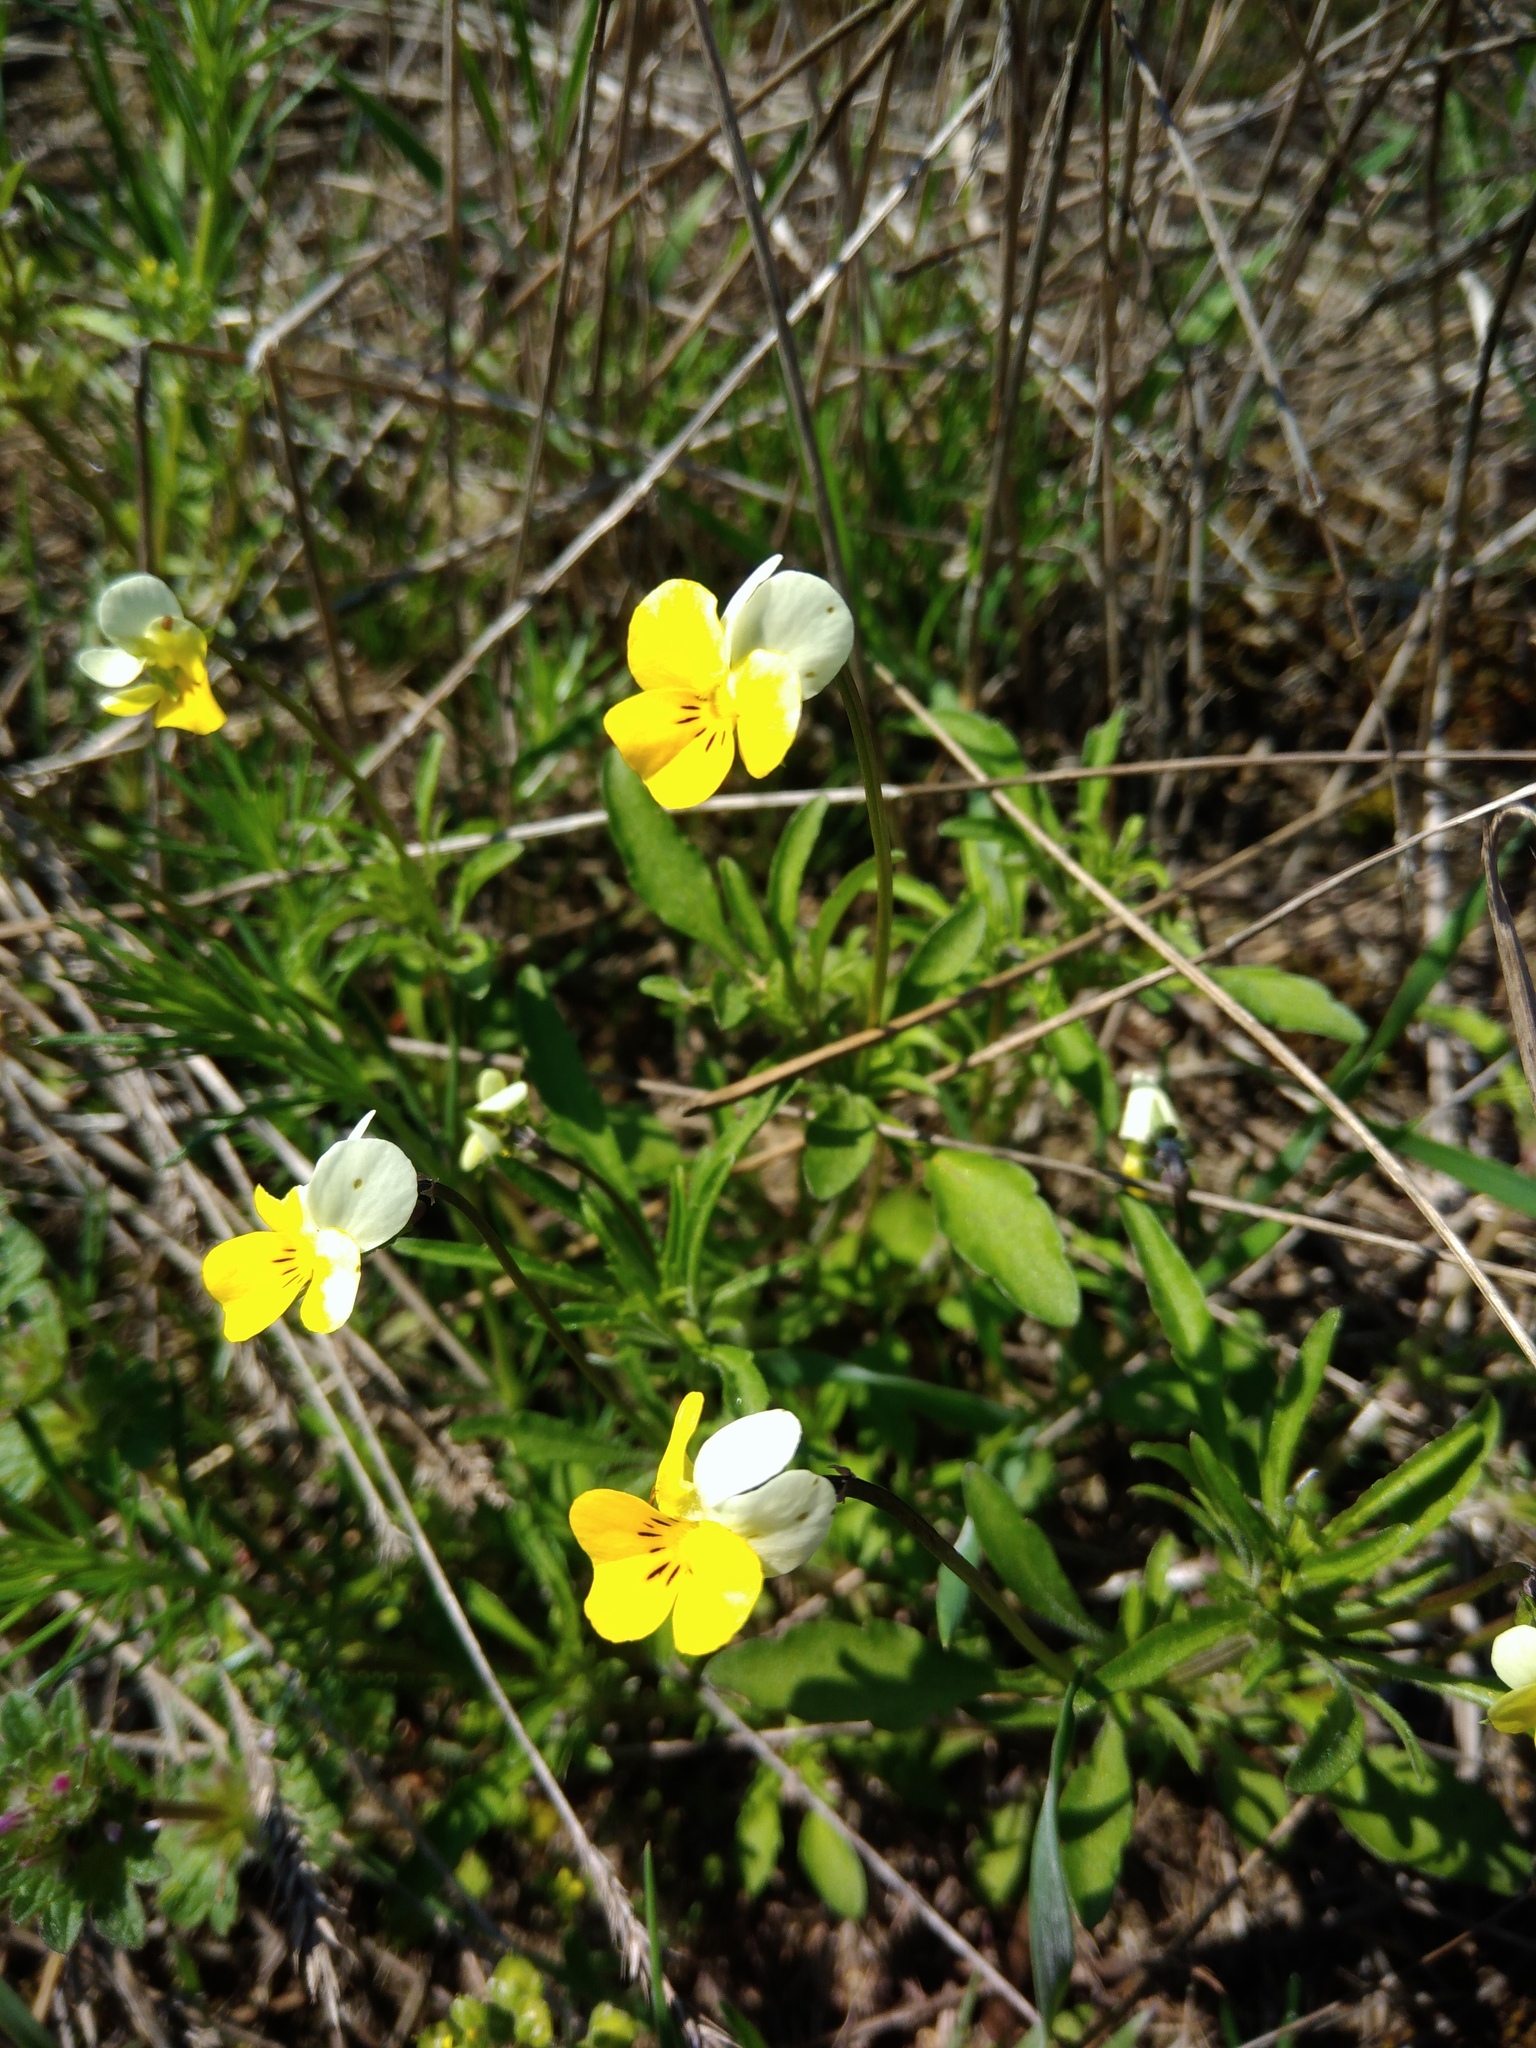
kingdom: Plantae
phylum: Tracheophyta
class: Magnoliopsida
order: Malpighiales
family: Violaceae
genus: Viola
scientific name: Viola hymettia
